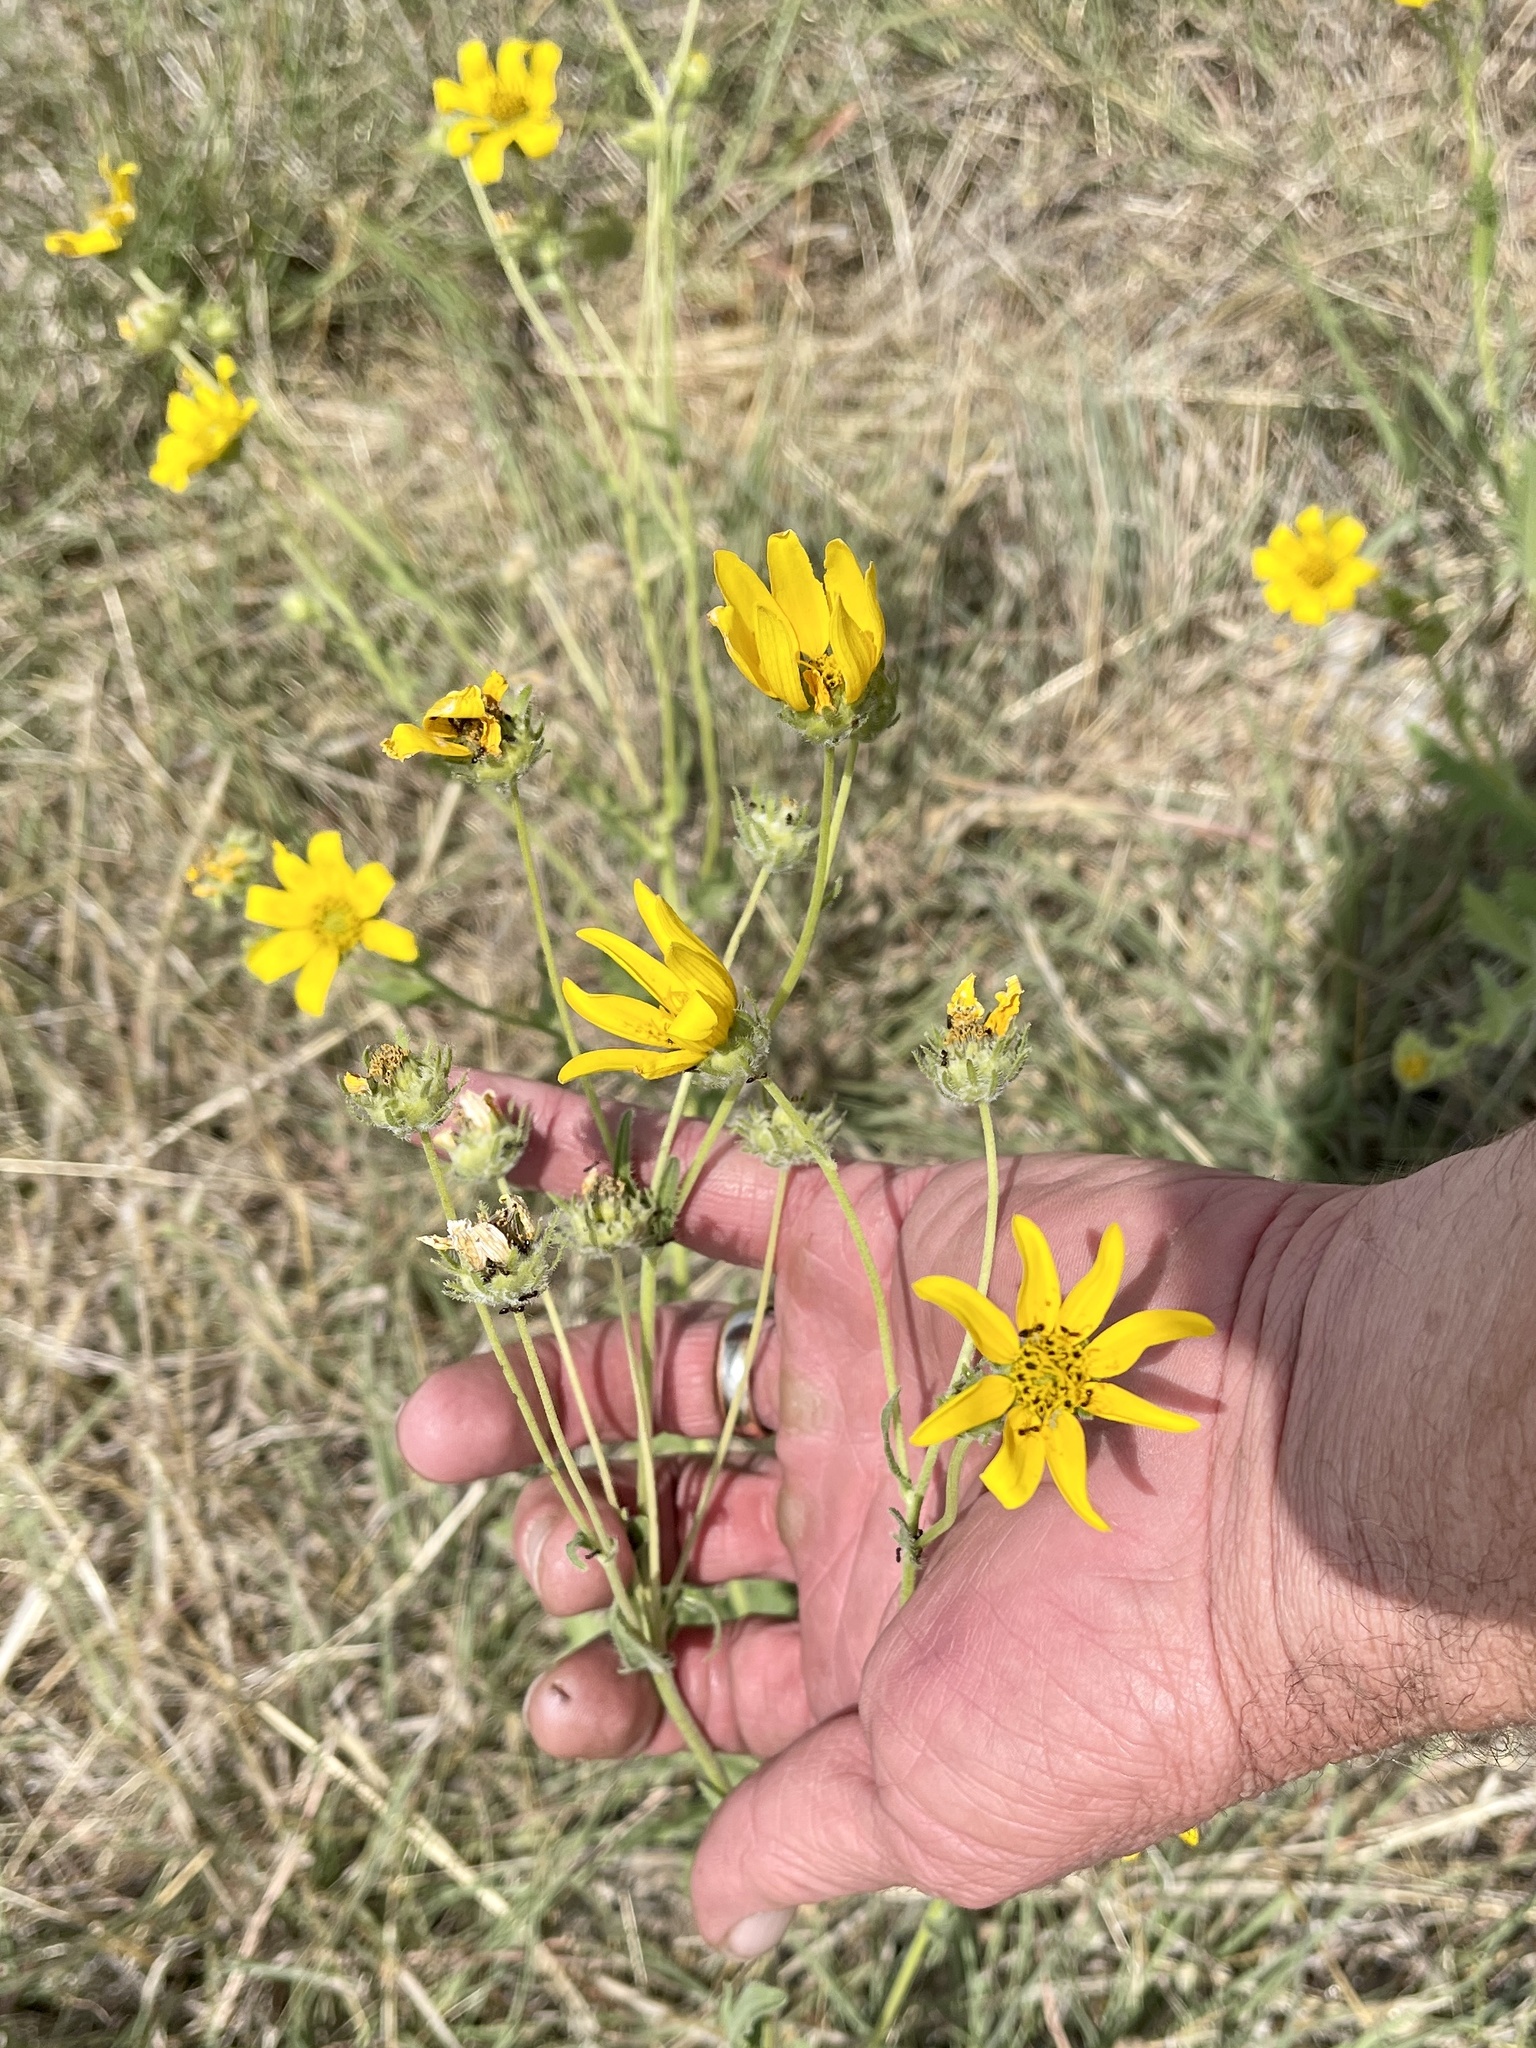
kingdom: Plantae
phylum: Tracheophyta
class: Magnoliopsida
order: Asterales
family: Asteraceae
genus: Engelmannia
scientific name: Engelmannia peristenia
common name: Engelmann's daisy
